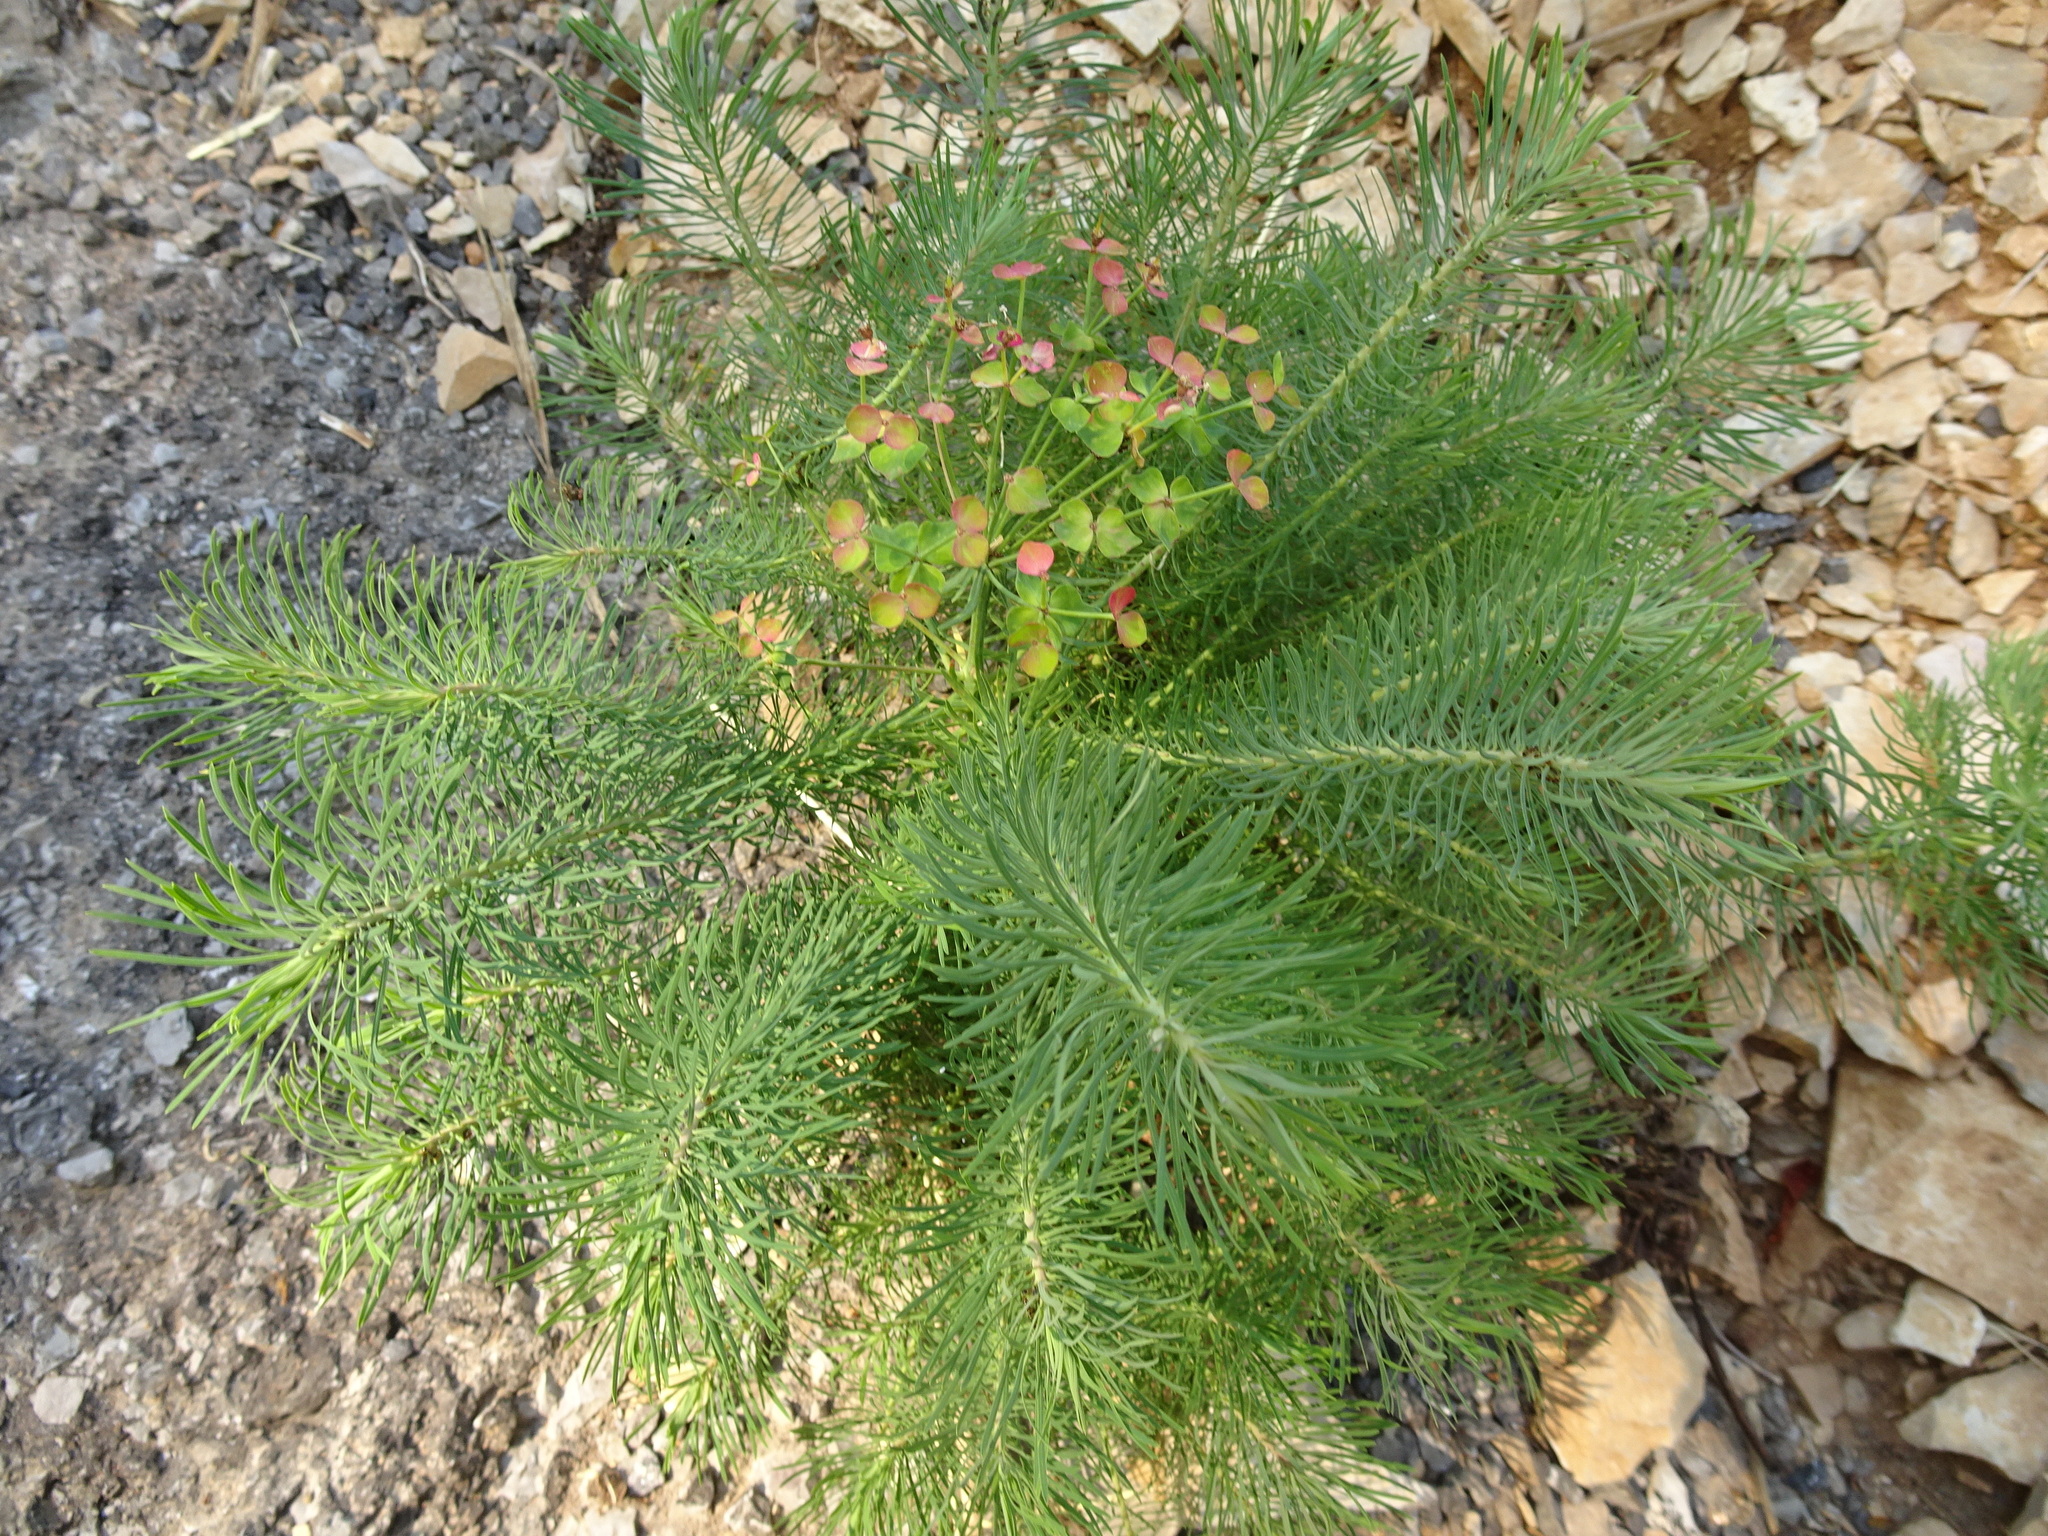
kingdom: Plantae
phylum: Tracheophyta
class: Magnoliopsida
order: Malpighiales
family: Euphorbiaceae
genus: Euphorbia
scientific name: Euphorbia cyparissias
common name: Cypress spurge
